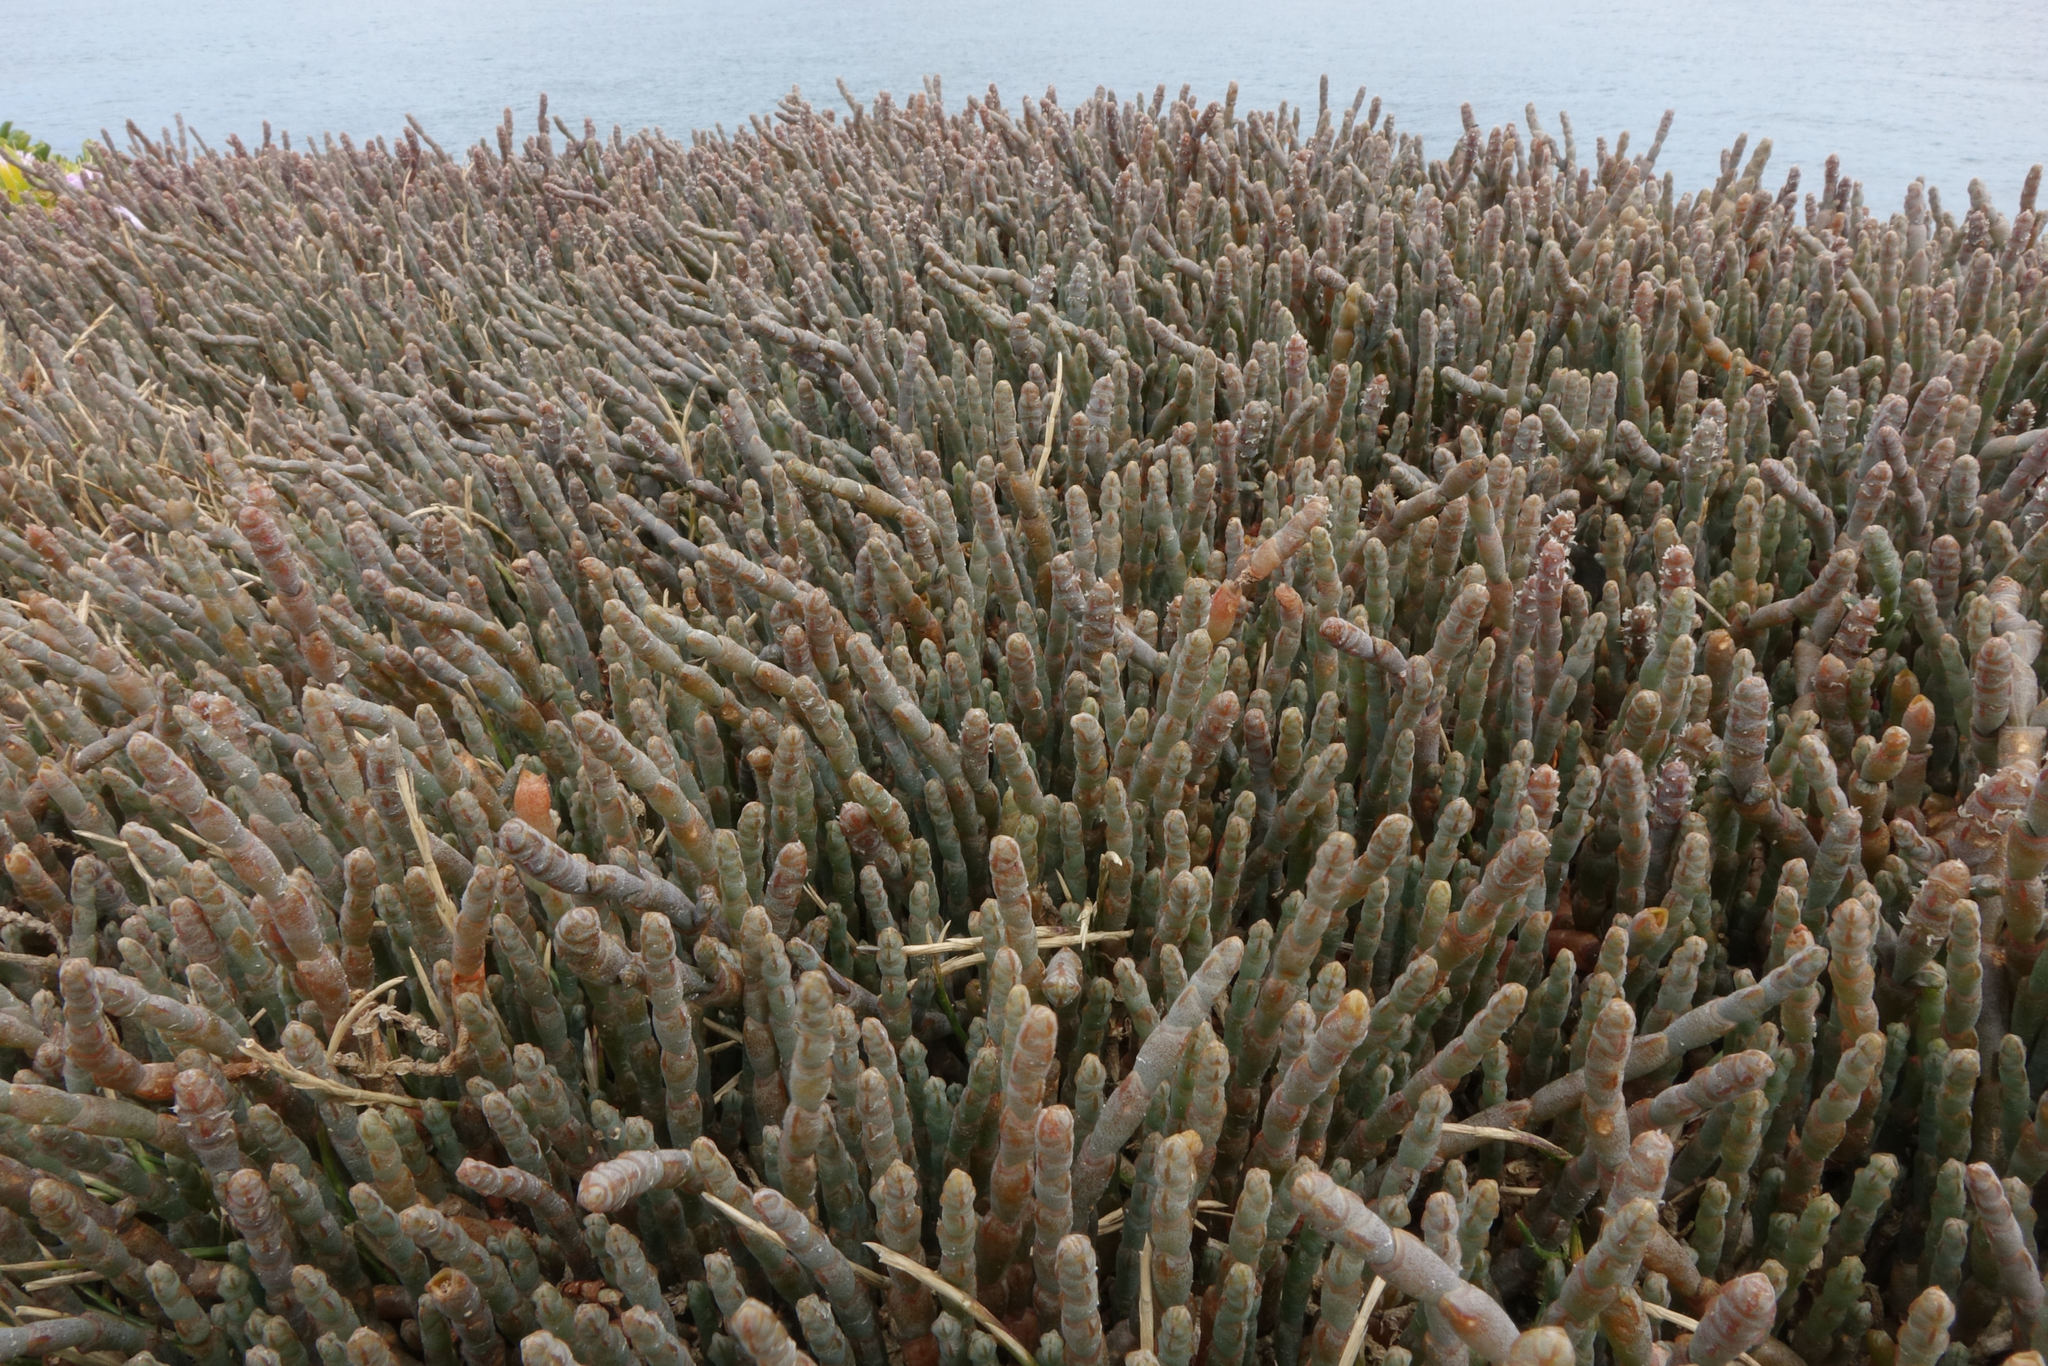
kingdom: Plantae
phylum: Tracheophyta
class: Magnoliopsida
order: Caryophyllales
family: Amaranthaceae
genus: Salicornia
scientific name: Salicornia quinqueflora
